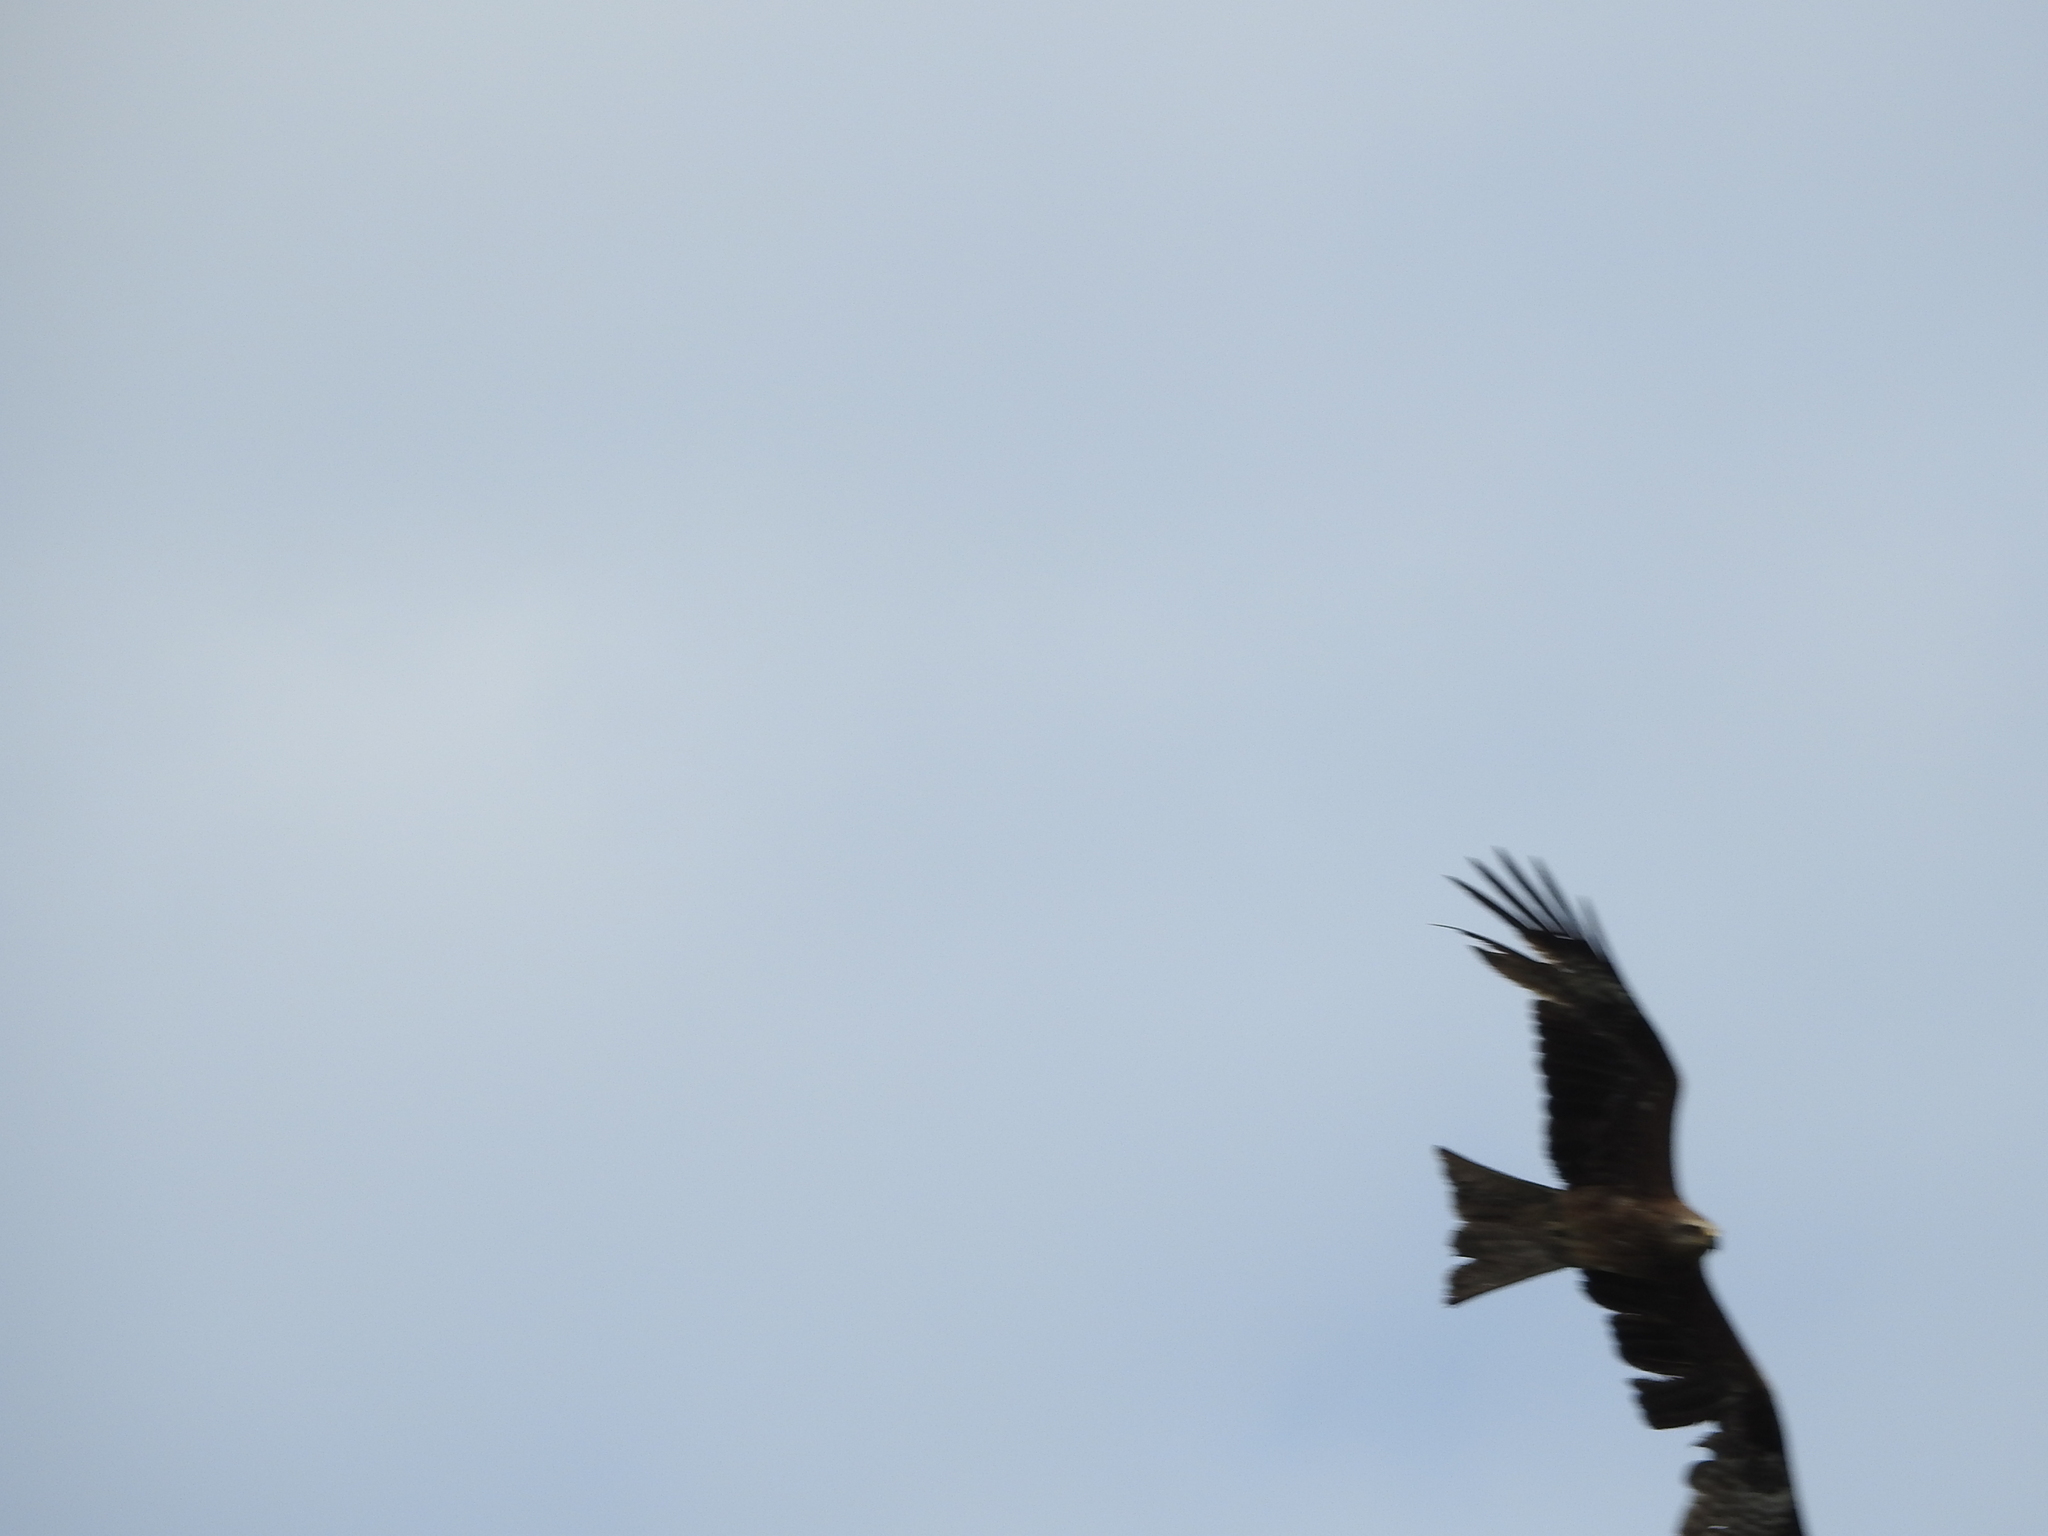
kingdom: Animalia
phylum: Chordata
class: Aves
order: Accipitriformes
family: Accipitridae
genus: Milvus
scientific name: Milvus migrans
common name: Black kite
